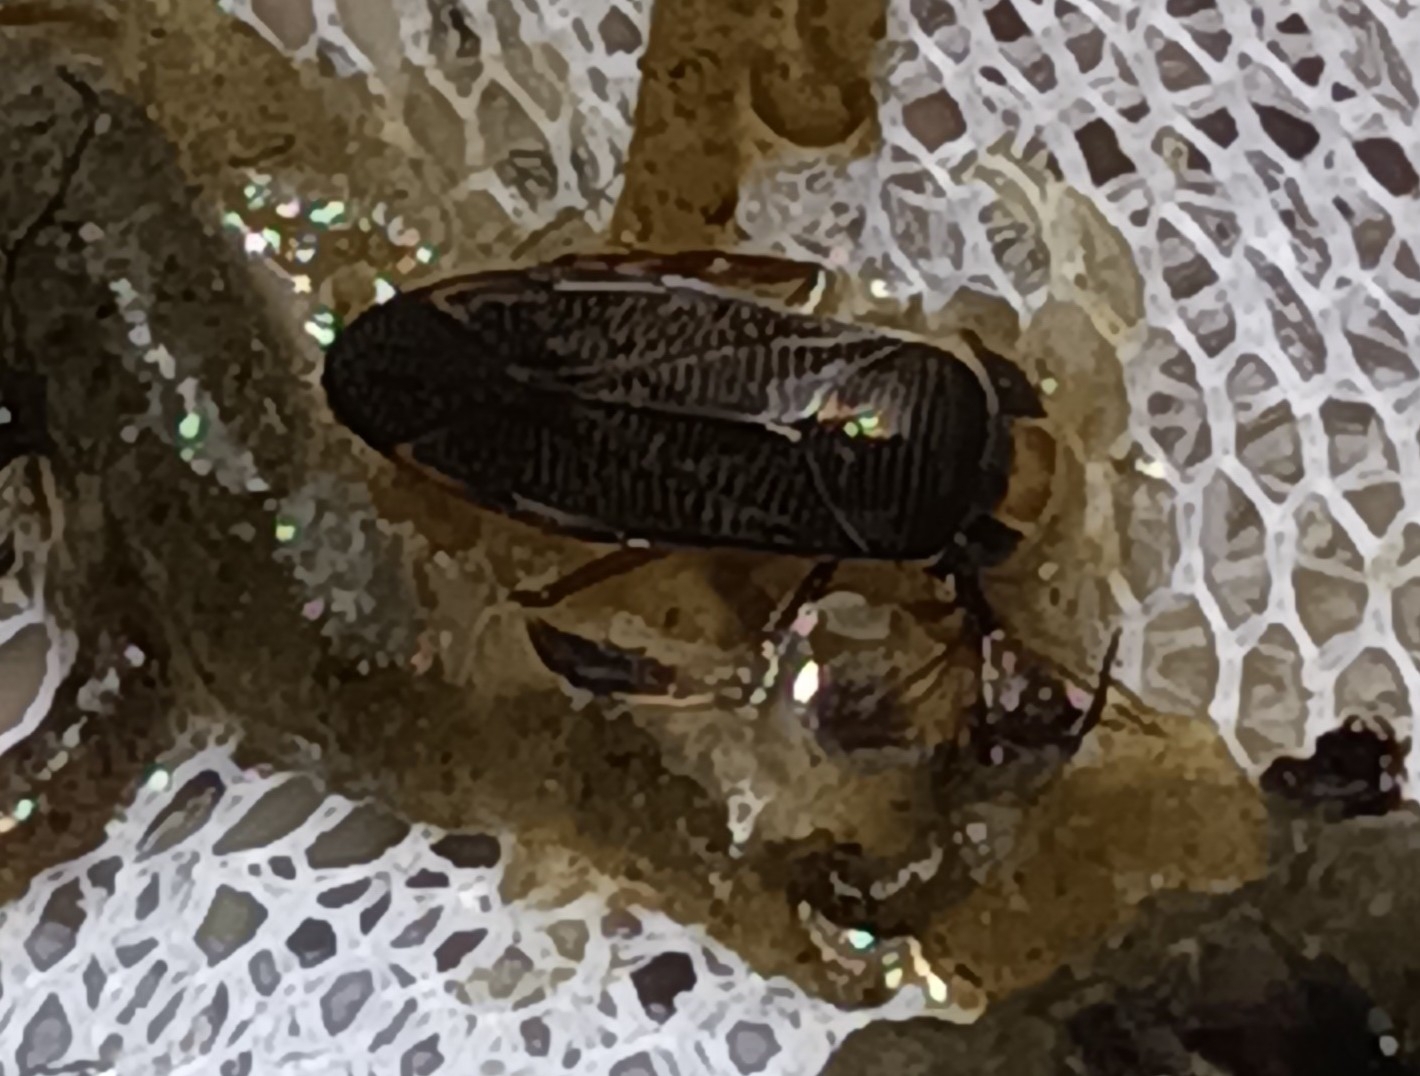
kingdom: Animalia
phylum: Arthropoda
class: Insecta
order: Hemiptera
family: Corixidae
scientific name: Corixidae
